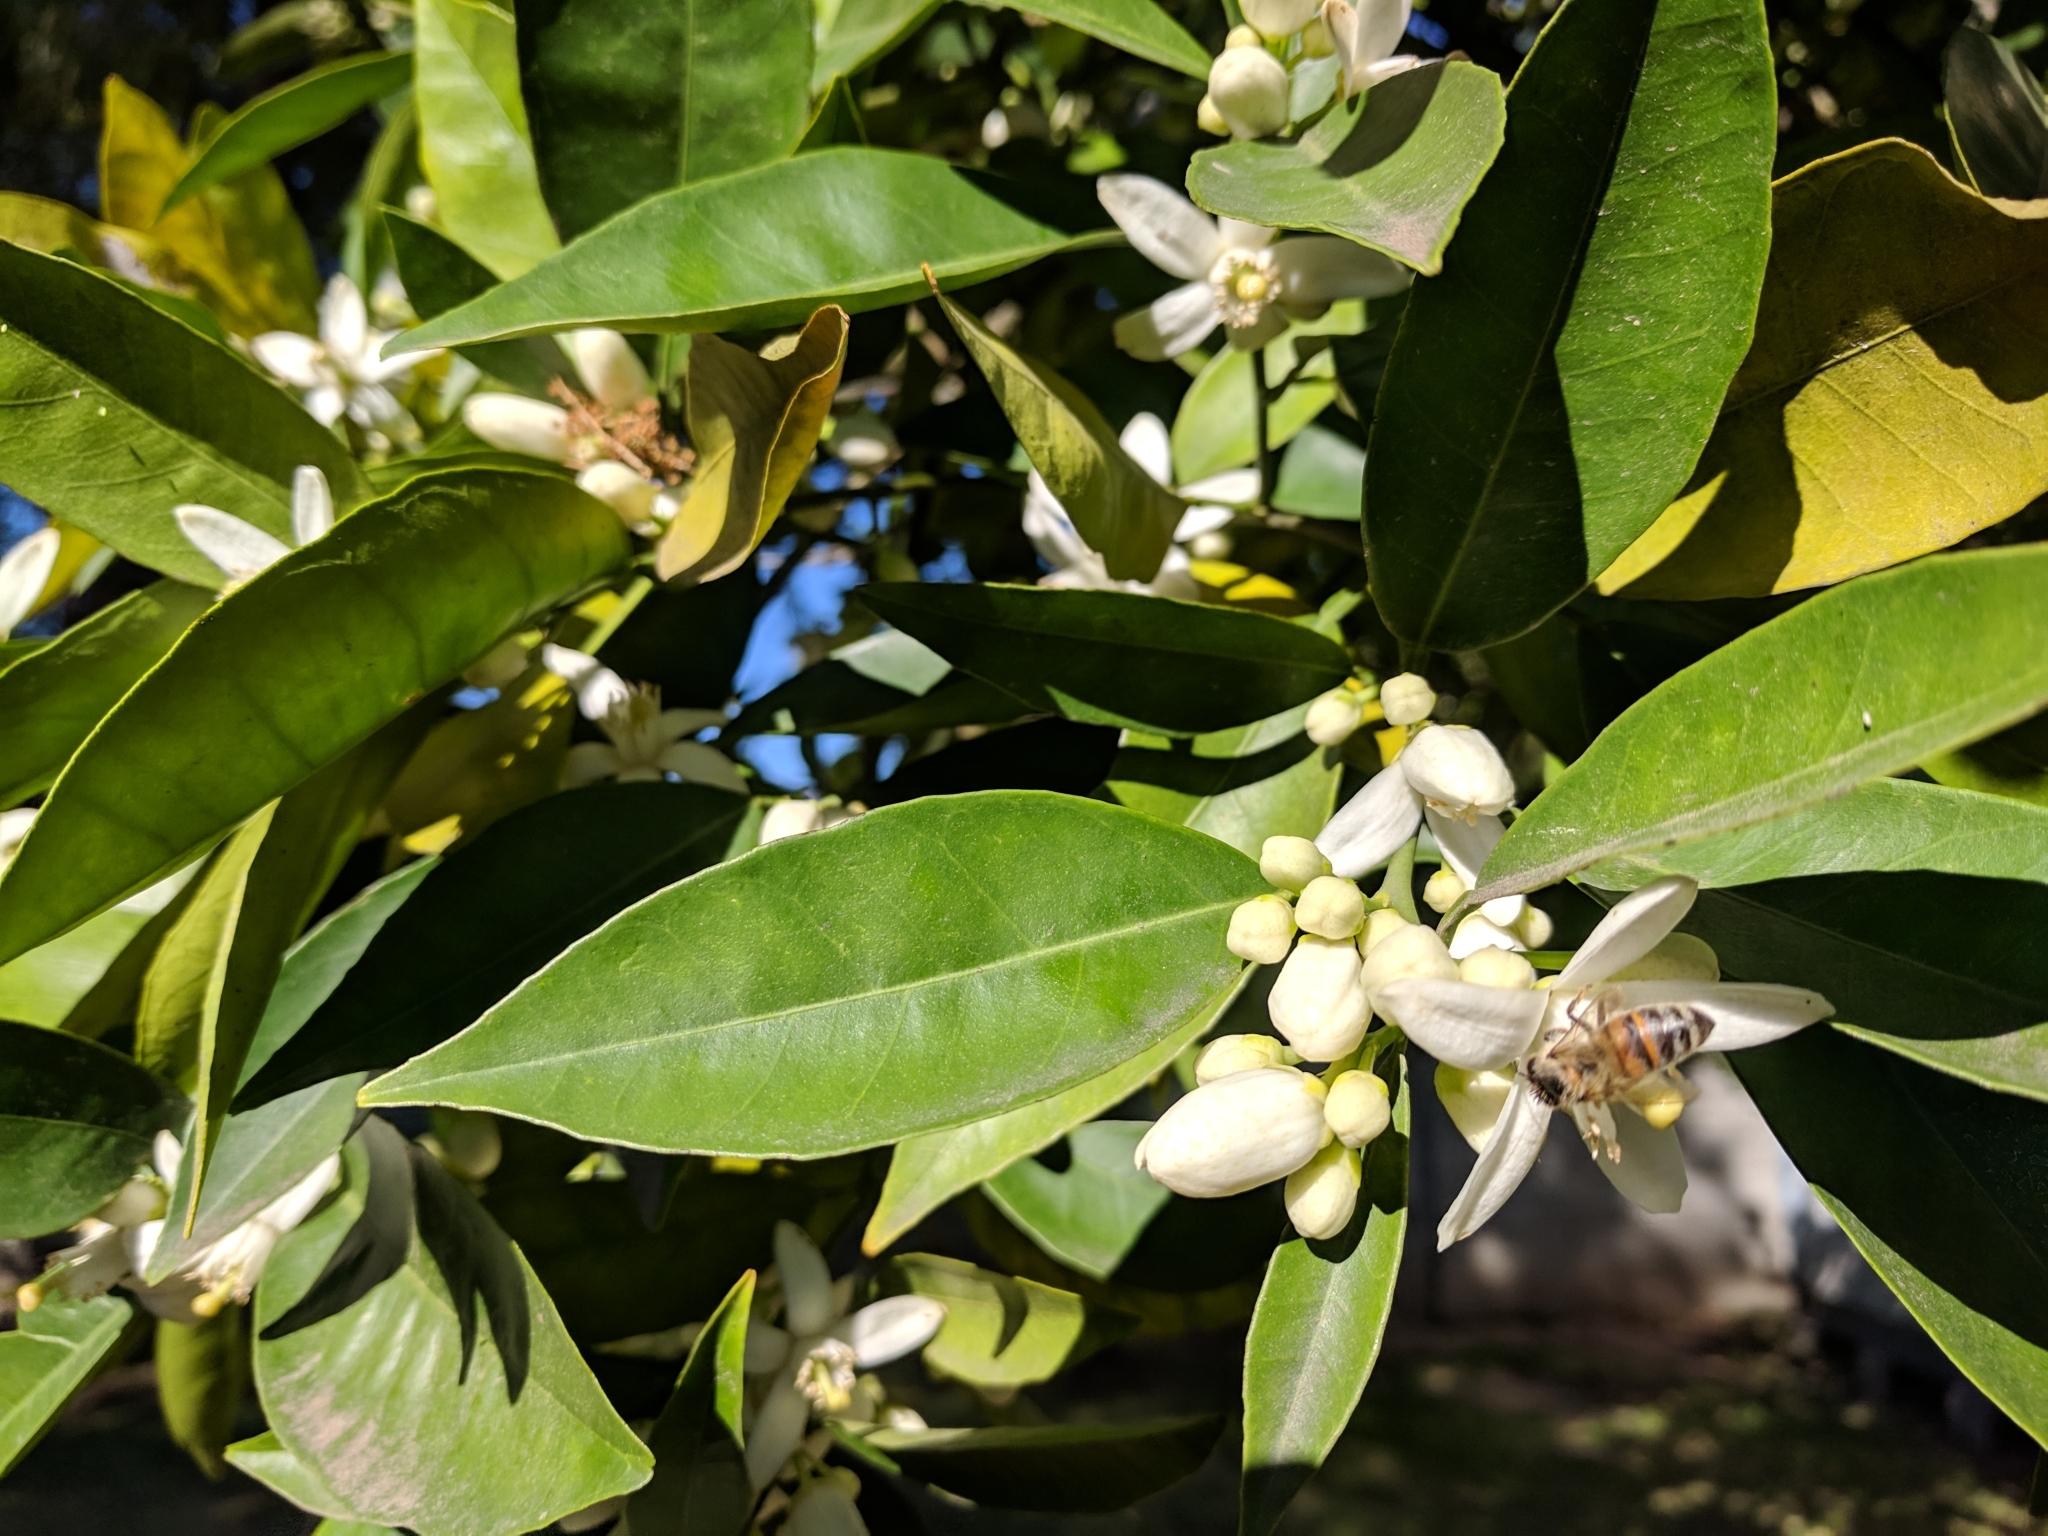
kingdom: Animalia
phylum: Arthropoda
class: Insecta
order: Hymenoptera
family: Apidae
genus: Apis
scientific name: Apis mellifera
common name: Honey bee
